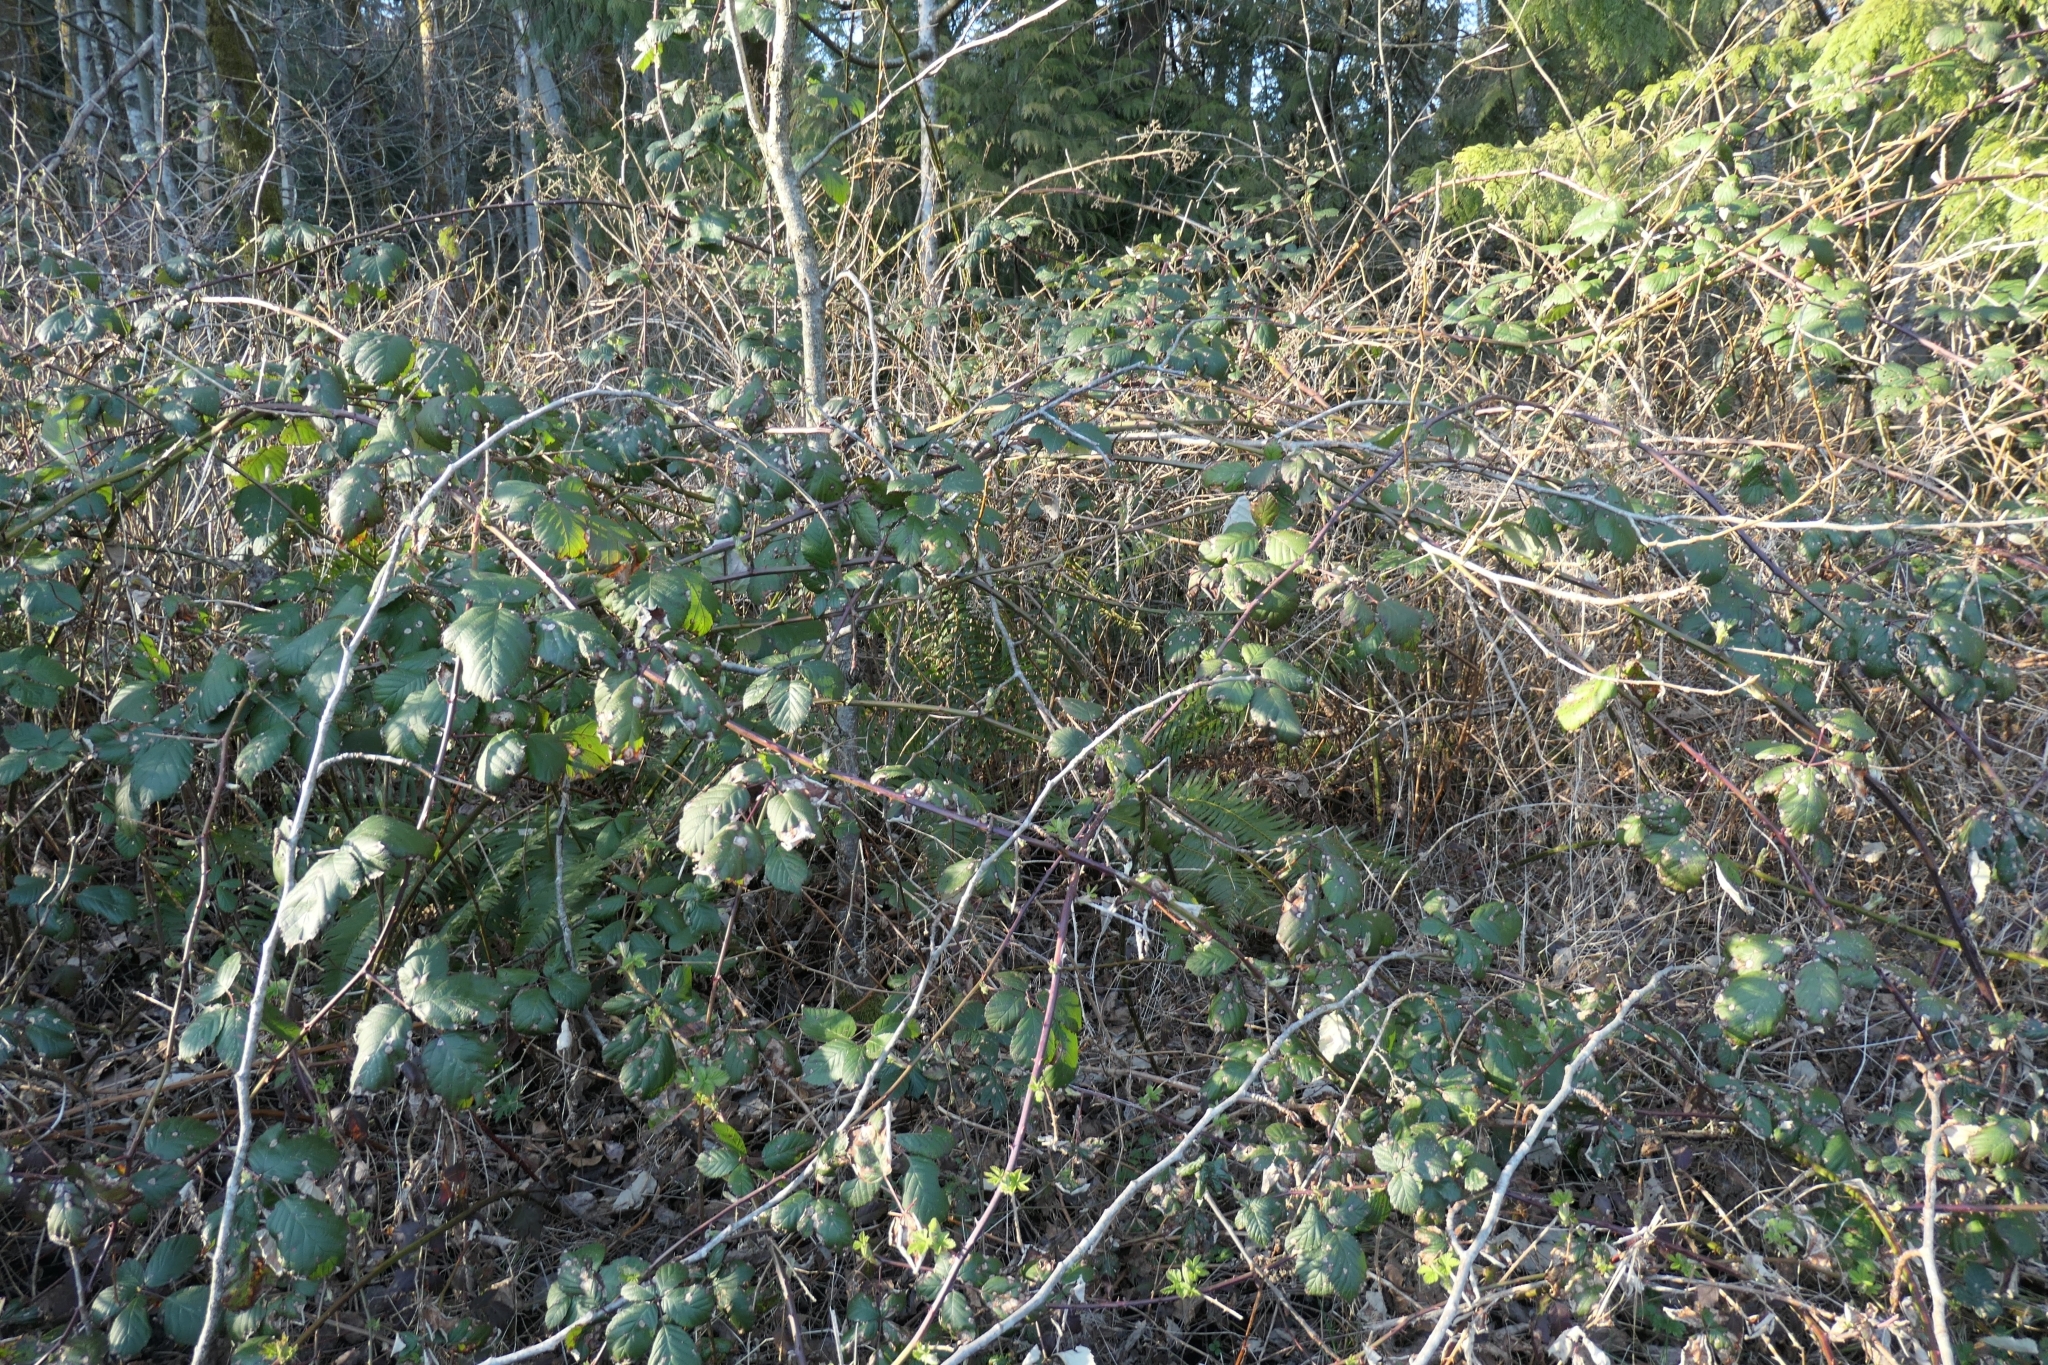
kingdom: Plantae
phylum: Tracheophyta
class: Magnoliopsida
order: Rosales
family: Rosaceae
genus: Rubus
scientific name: Rubus bifrons
